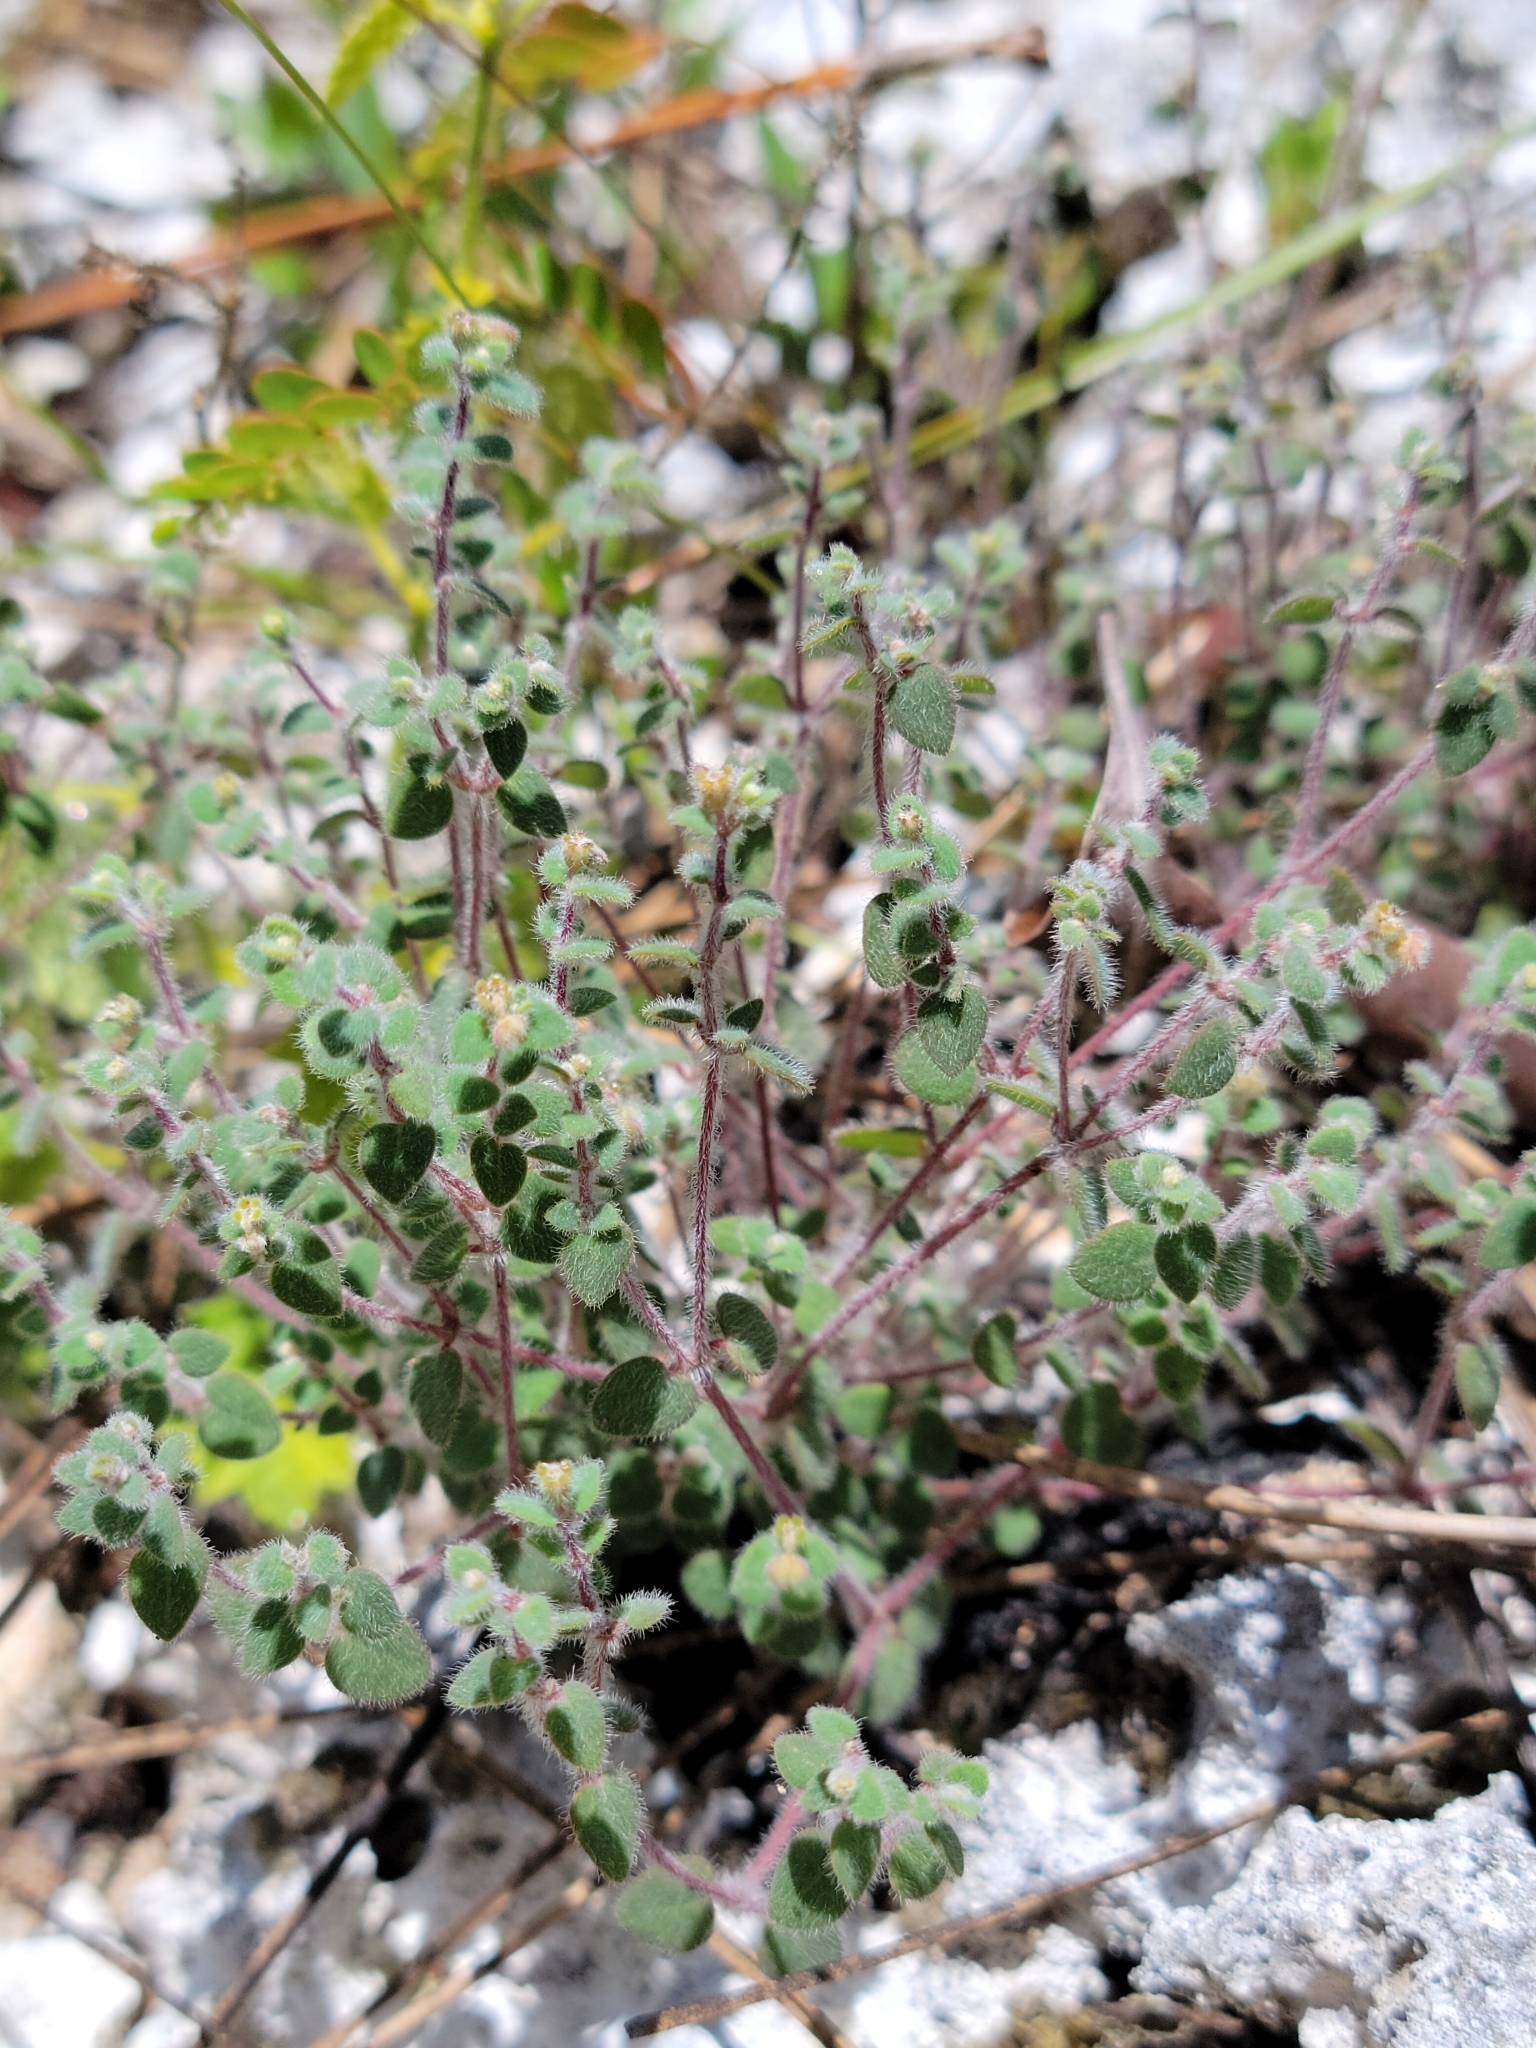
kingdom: Plantae
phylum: Tracheophyta
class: Magnoliopsida
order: Malpighiales
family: Euphorbiaceae
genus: Euphorbia
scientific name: Euphorbia deltoidea
